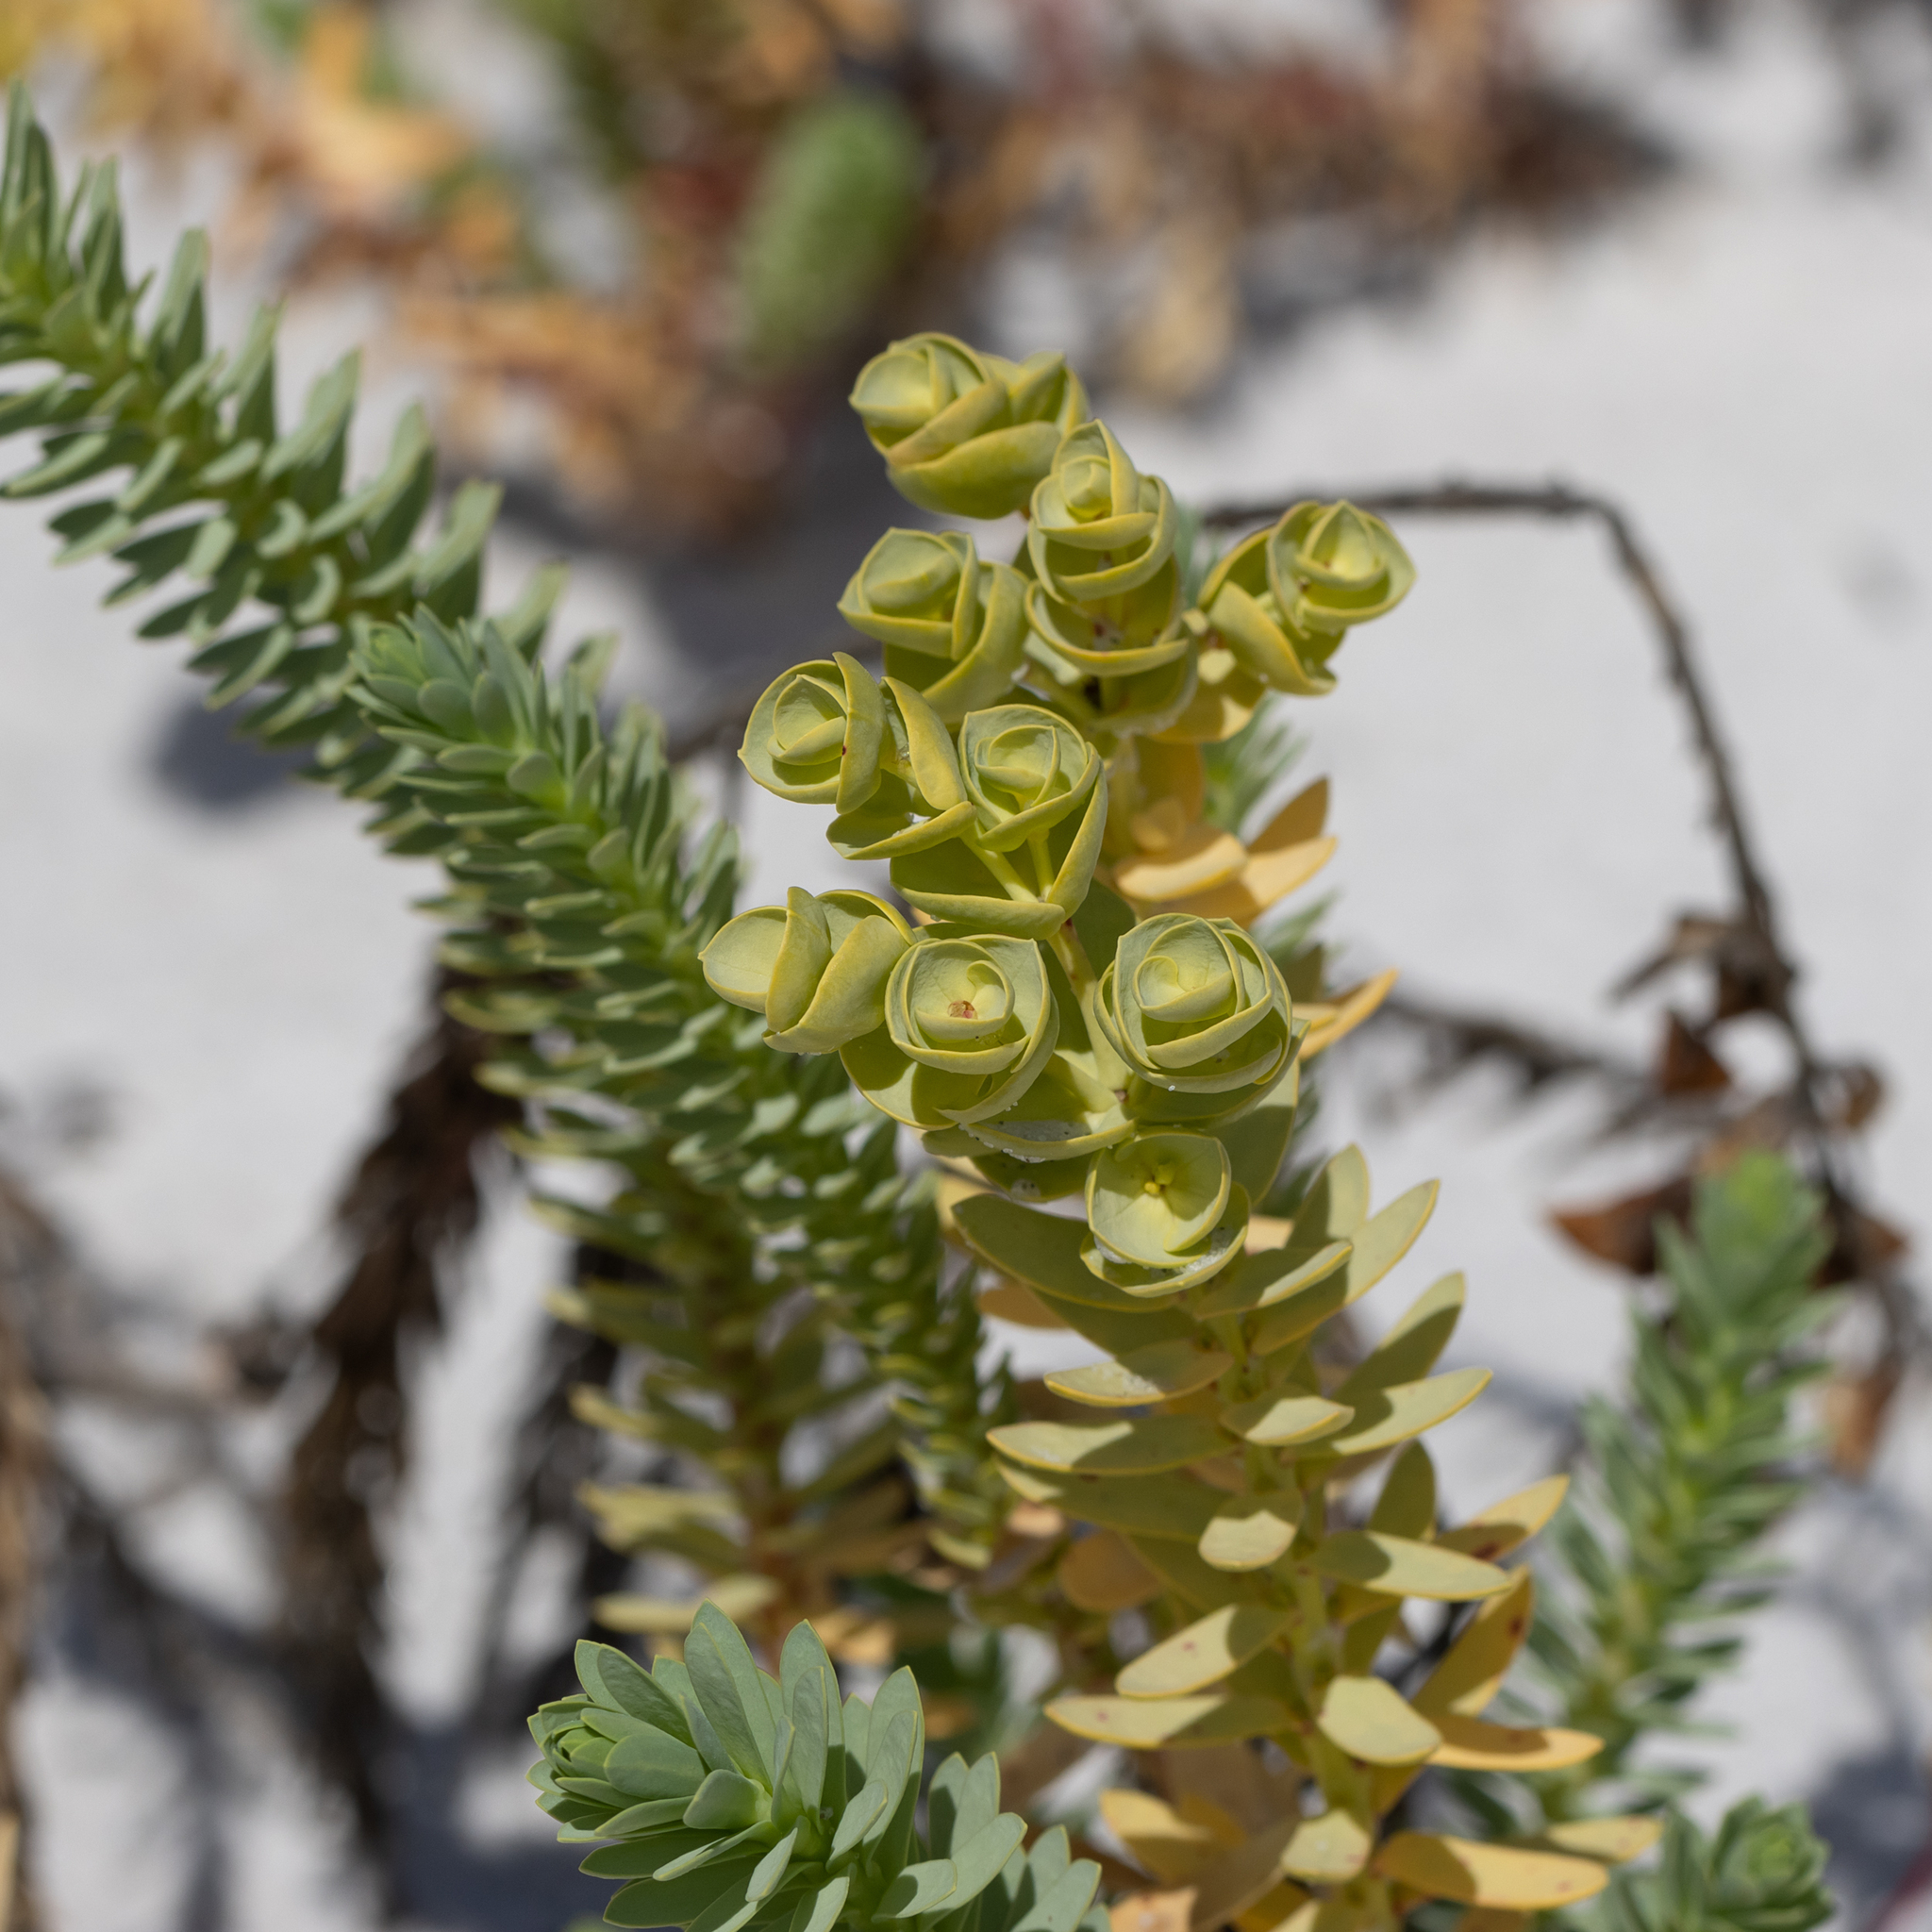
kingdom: Plantae
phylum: Tracheophyta
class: Magnoliopsida
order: Malpighiales
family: Euphorbiaceae
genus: Euphorbia
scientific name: Euphorbia paralias
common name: Sea spurge
